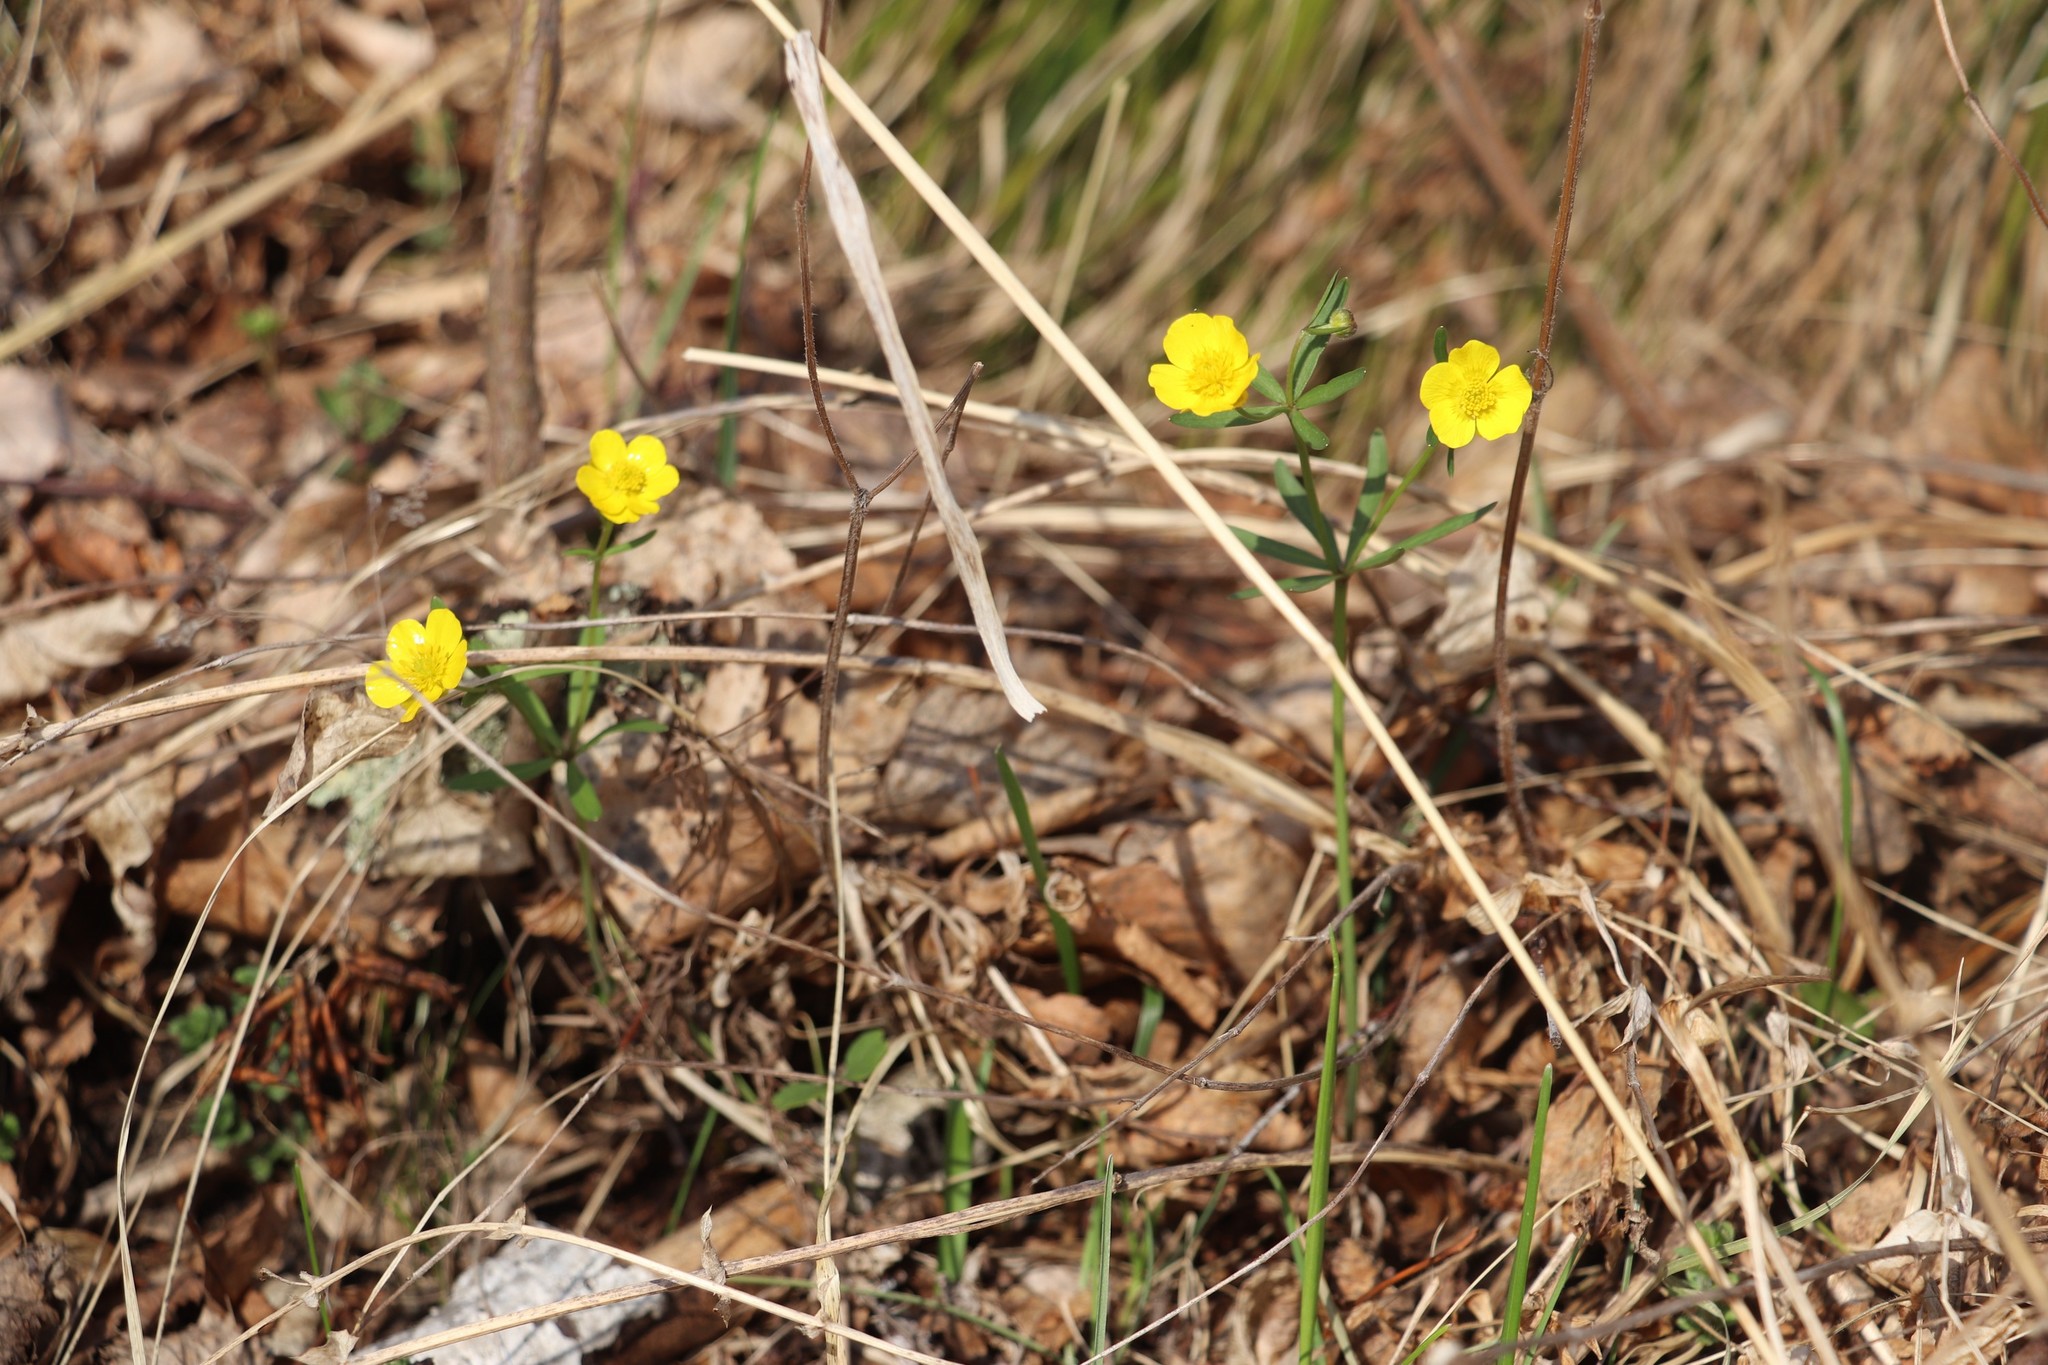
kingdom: Plantae
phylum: Tracheophyta
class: Magnoliopsida
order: Ranunculales
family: Ranunculaceae
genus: Ranunculus
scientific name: Ranunculus monophyllus
